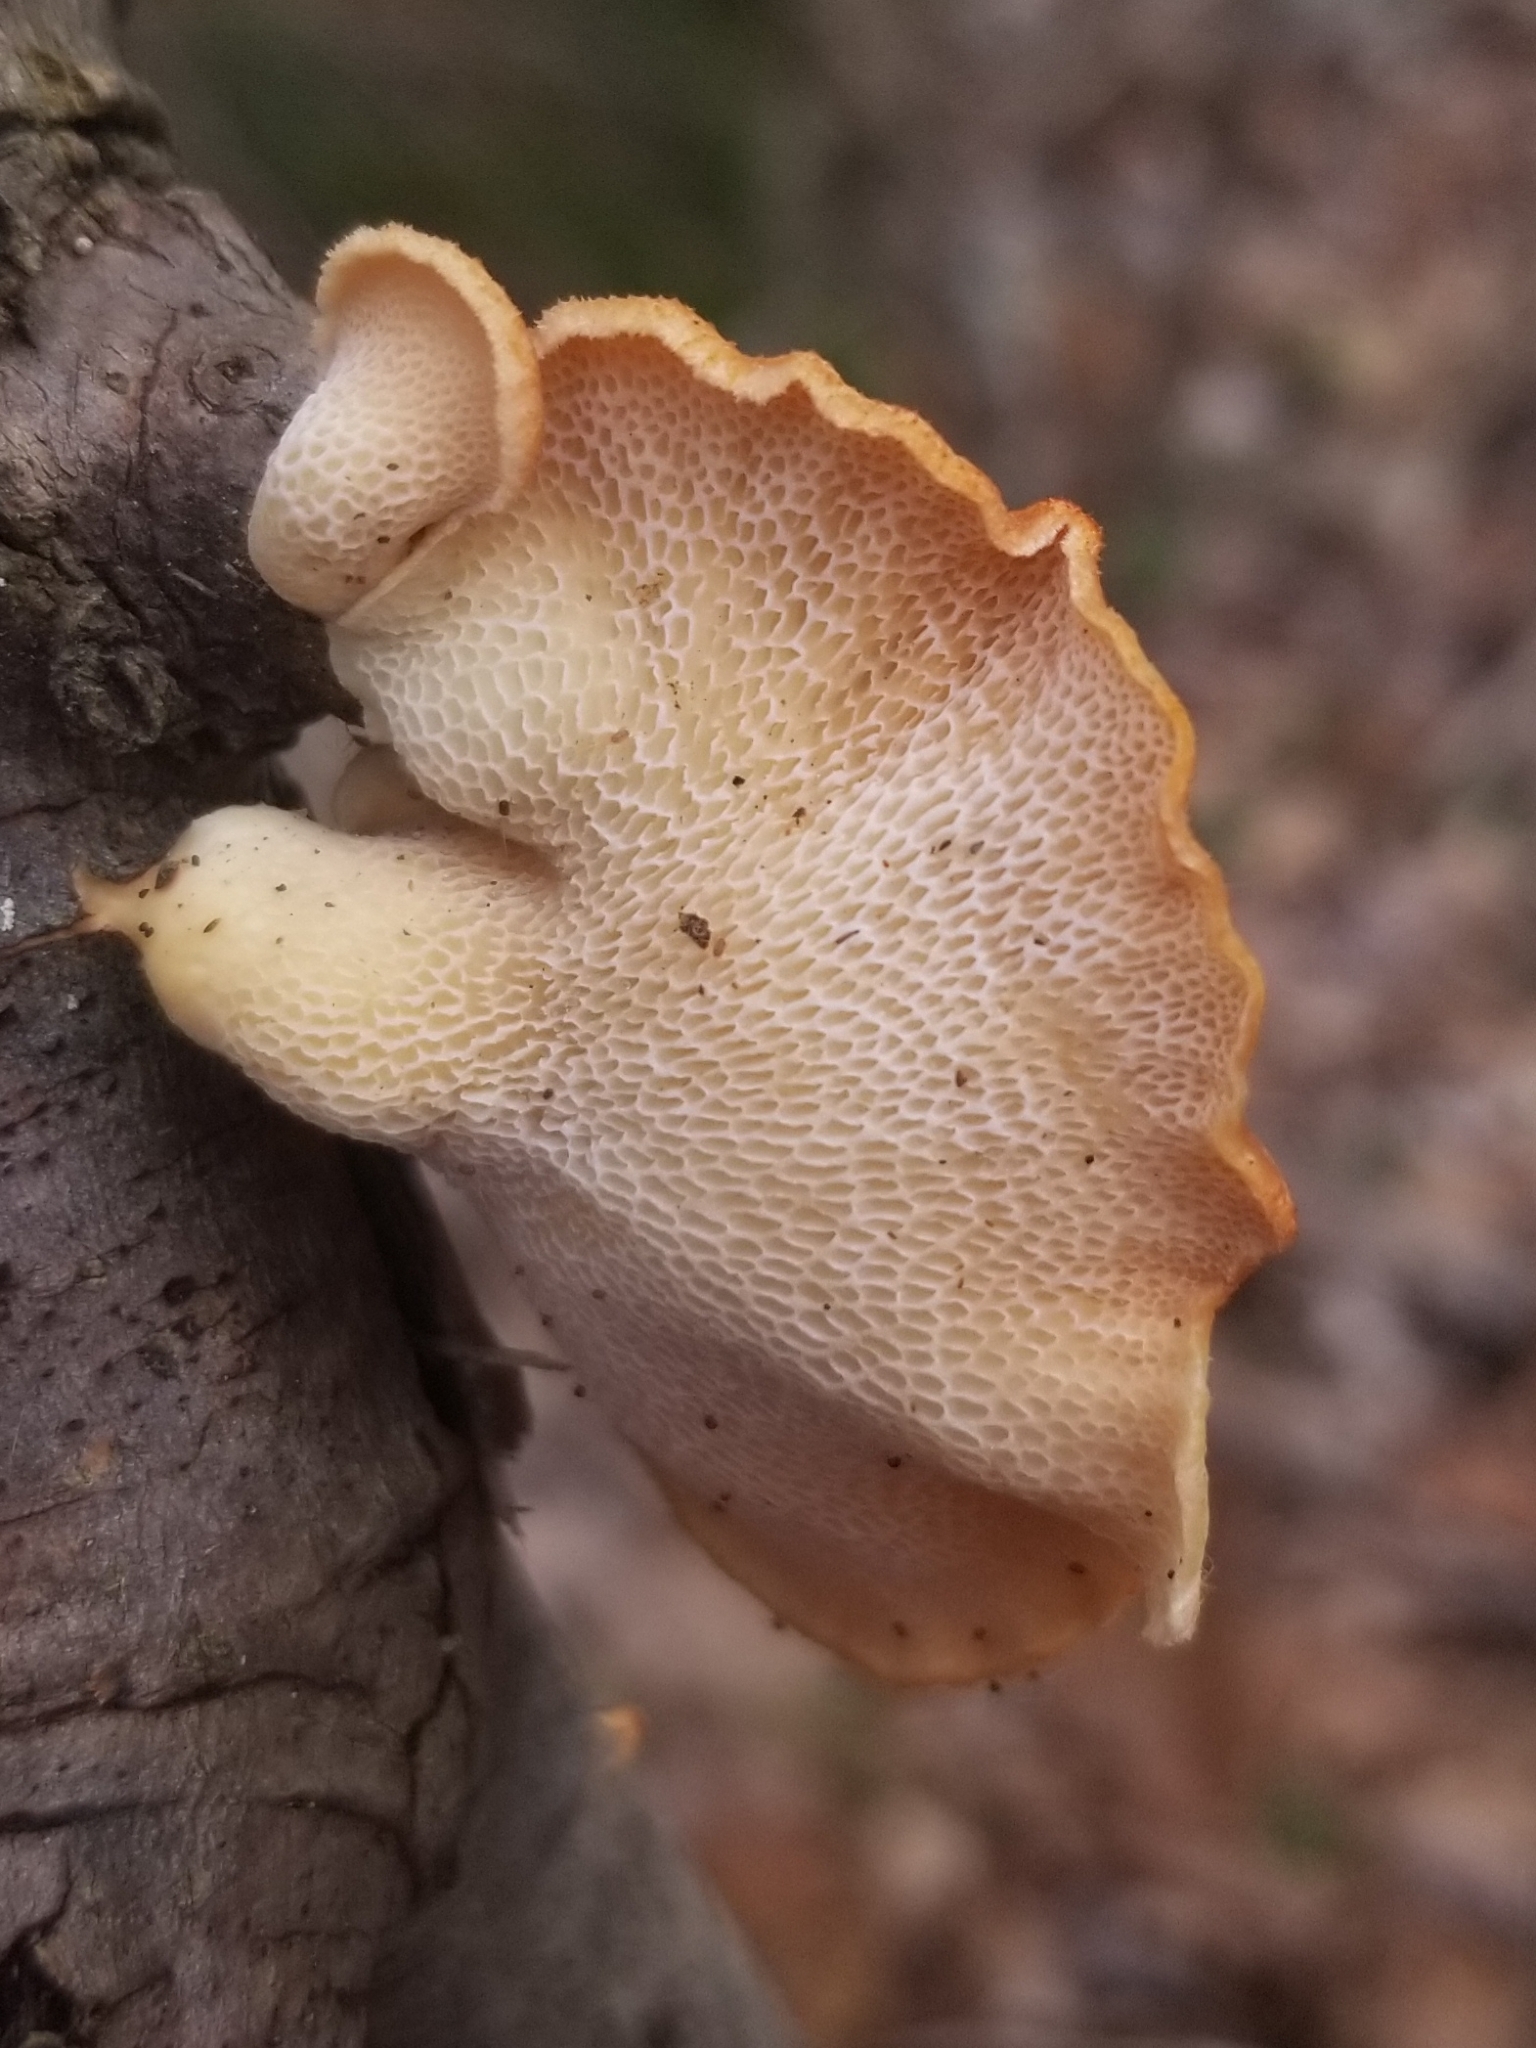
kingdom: Fungi
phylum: Basidiomycota
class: Agaricomycetes
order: Polyporales
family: Polyporaceae
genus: Neofavolus
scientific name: Neofavolus alveolaris
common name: Hexagonal-pored polypore
